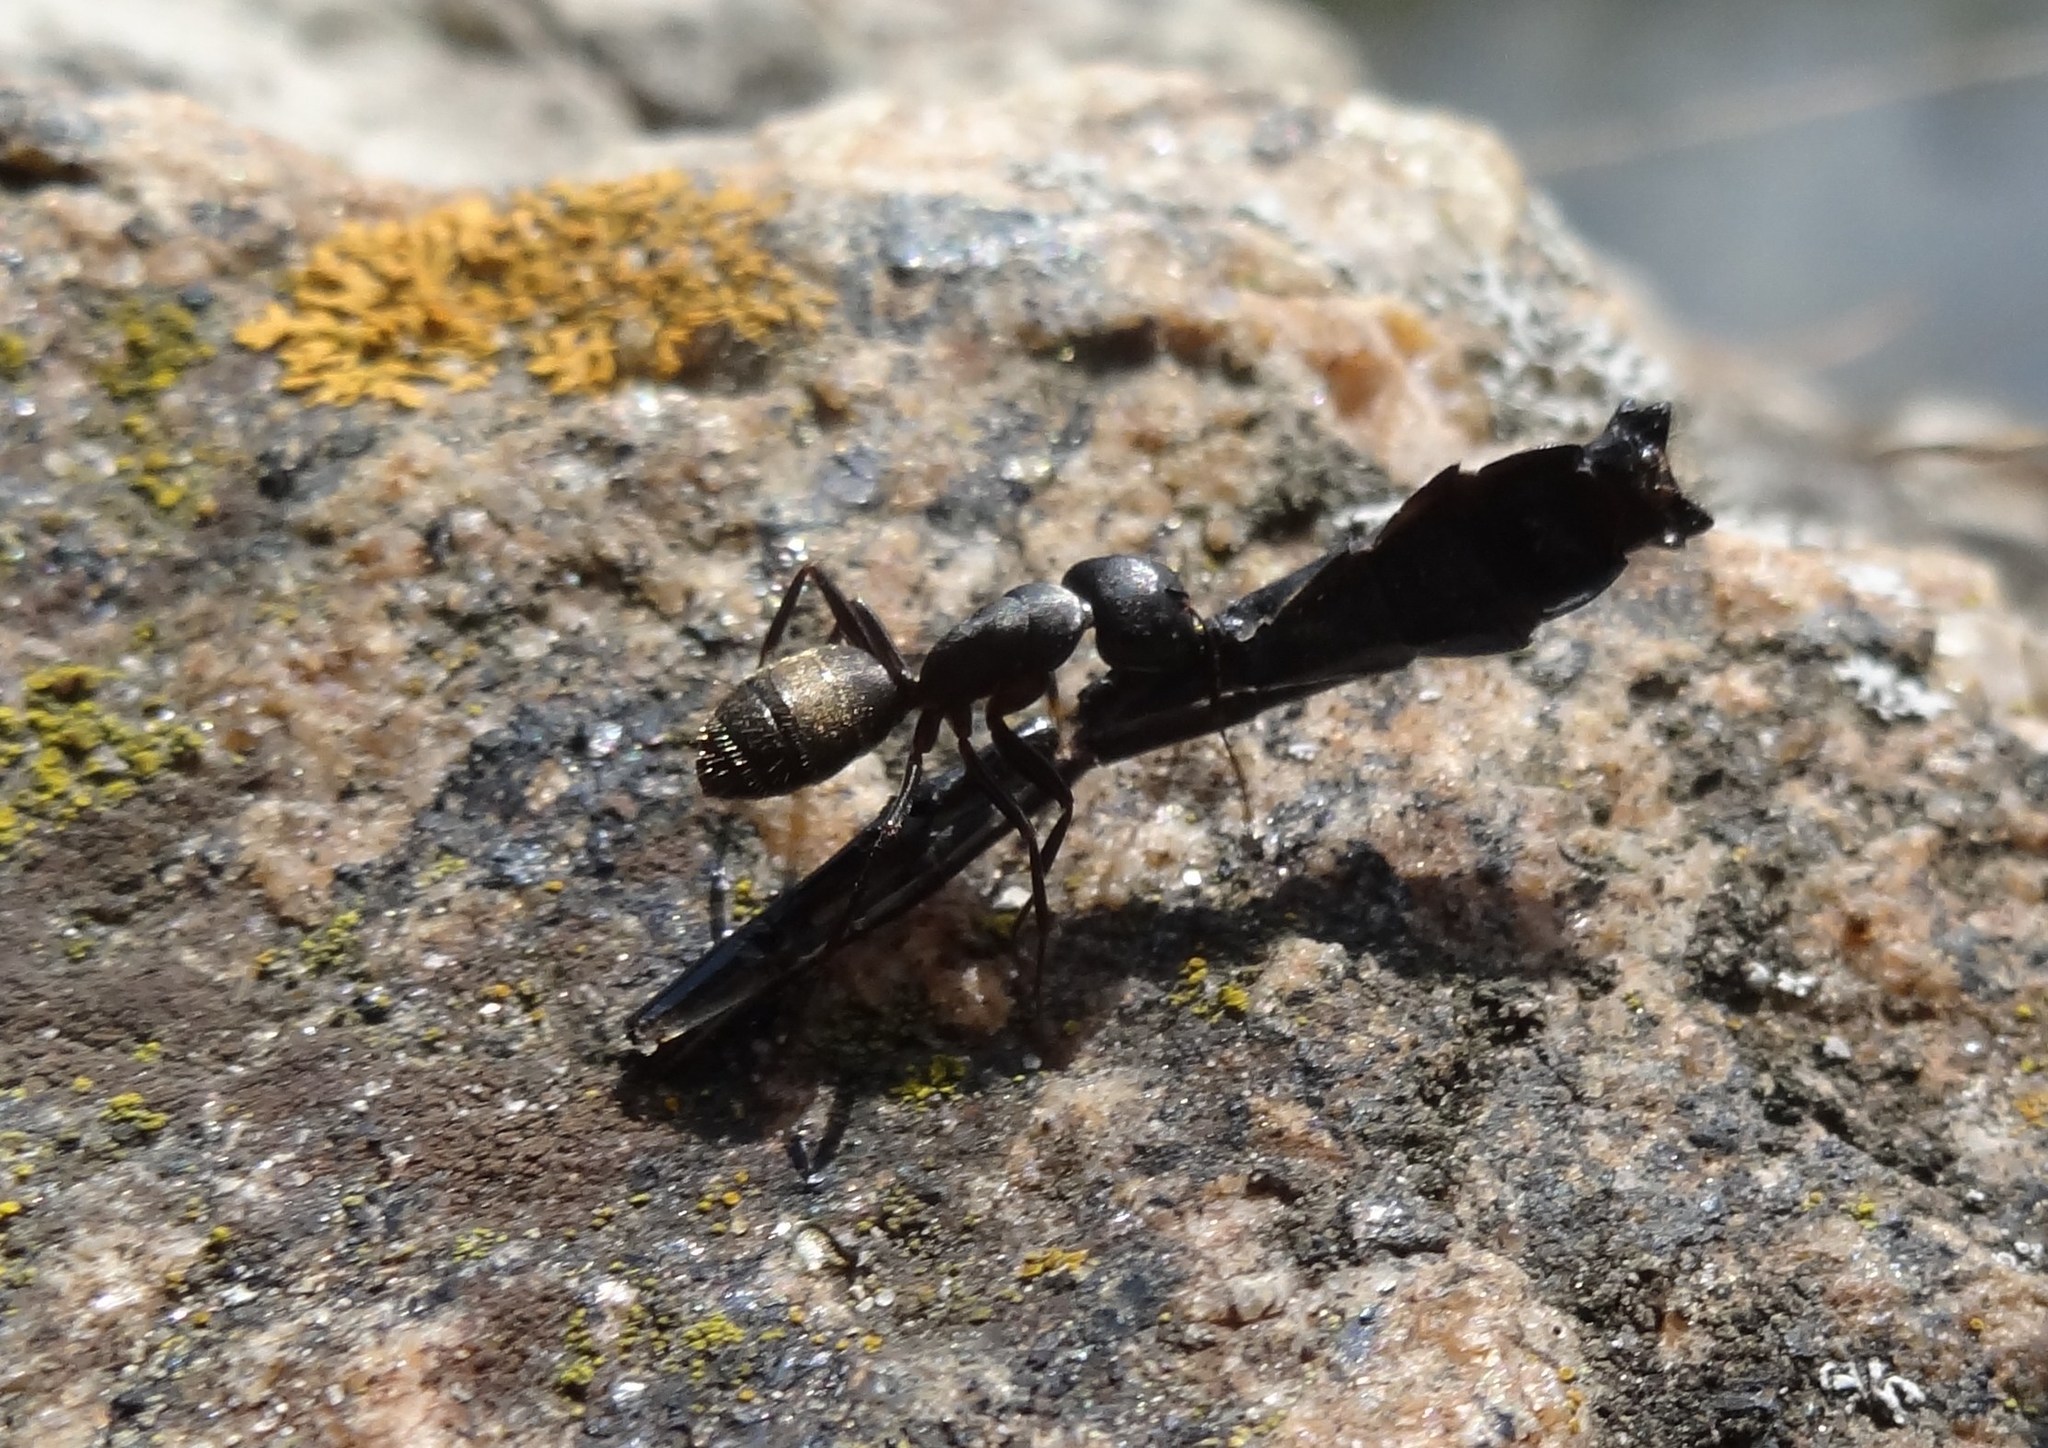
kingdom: Animalia
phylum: Arthropoda
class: Insecta
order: Hymenoptera
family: Formicidae
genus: Camponotus
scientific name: Camponotus pennsylvanicus
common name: Black carpenter ant
